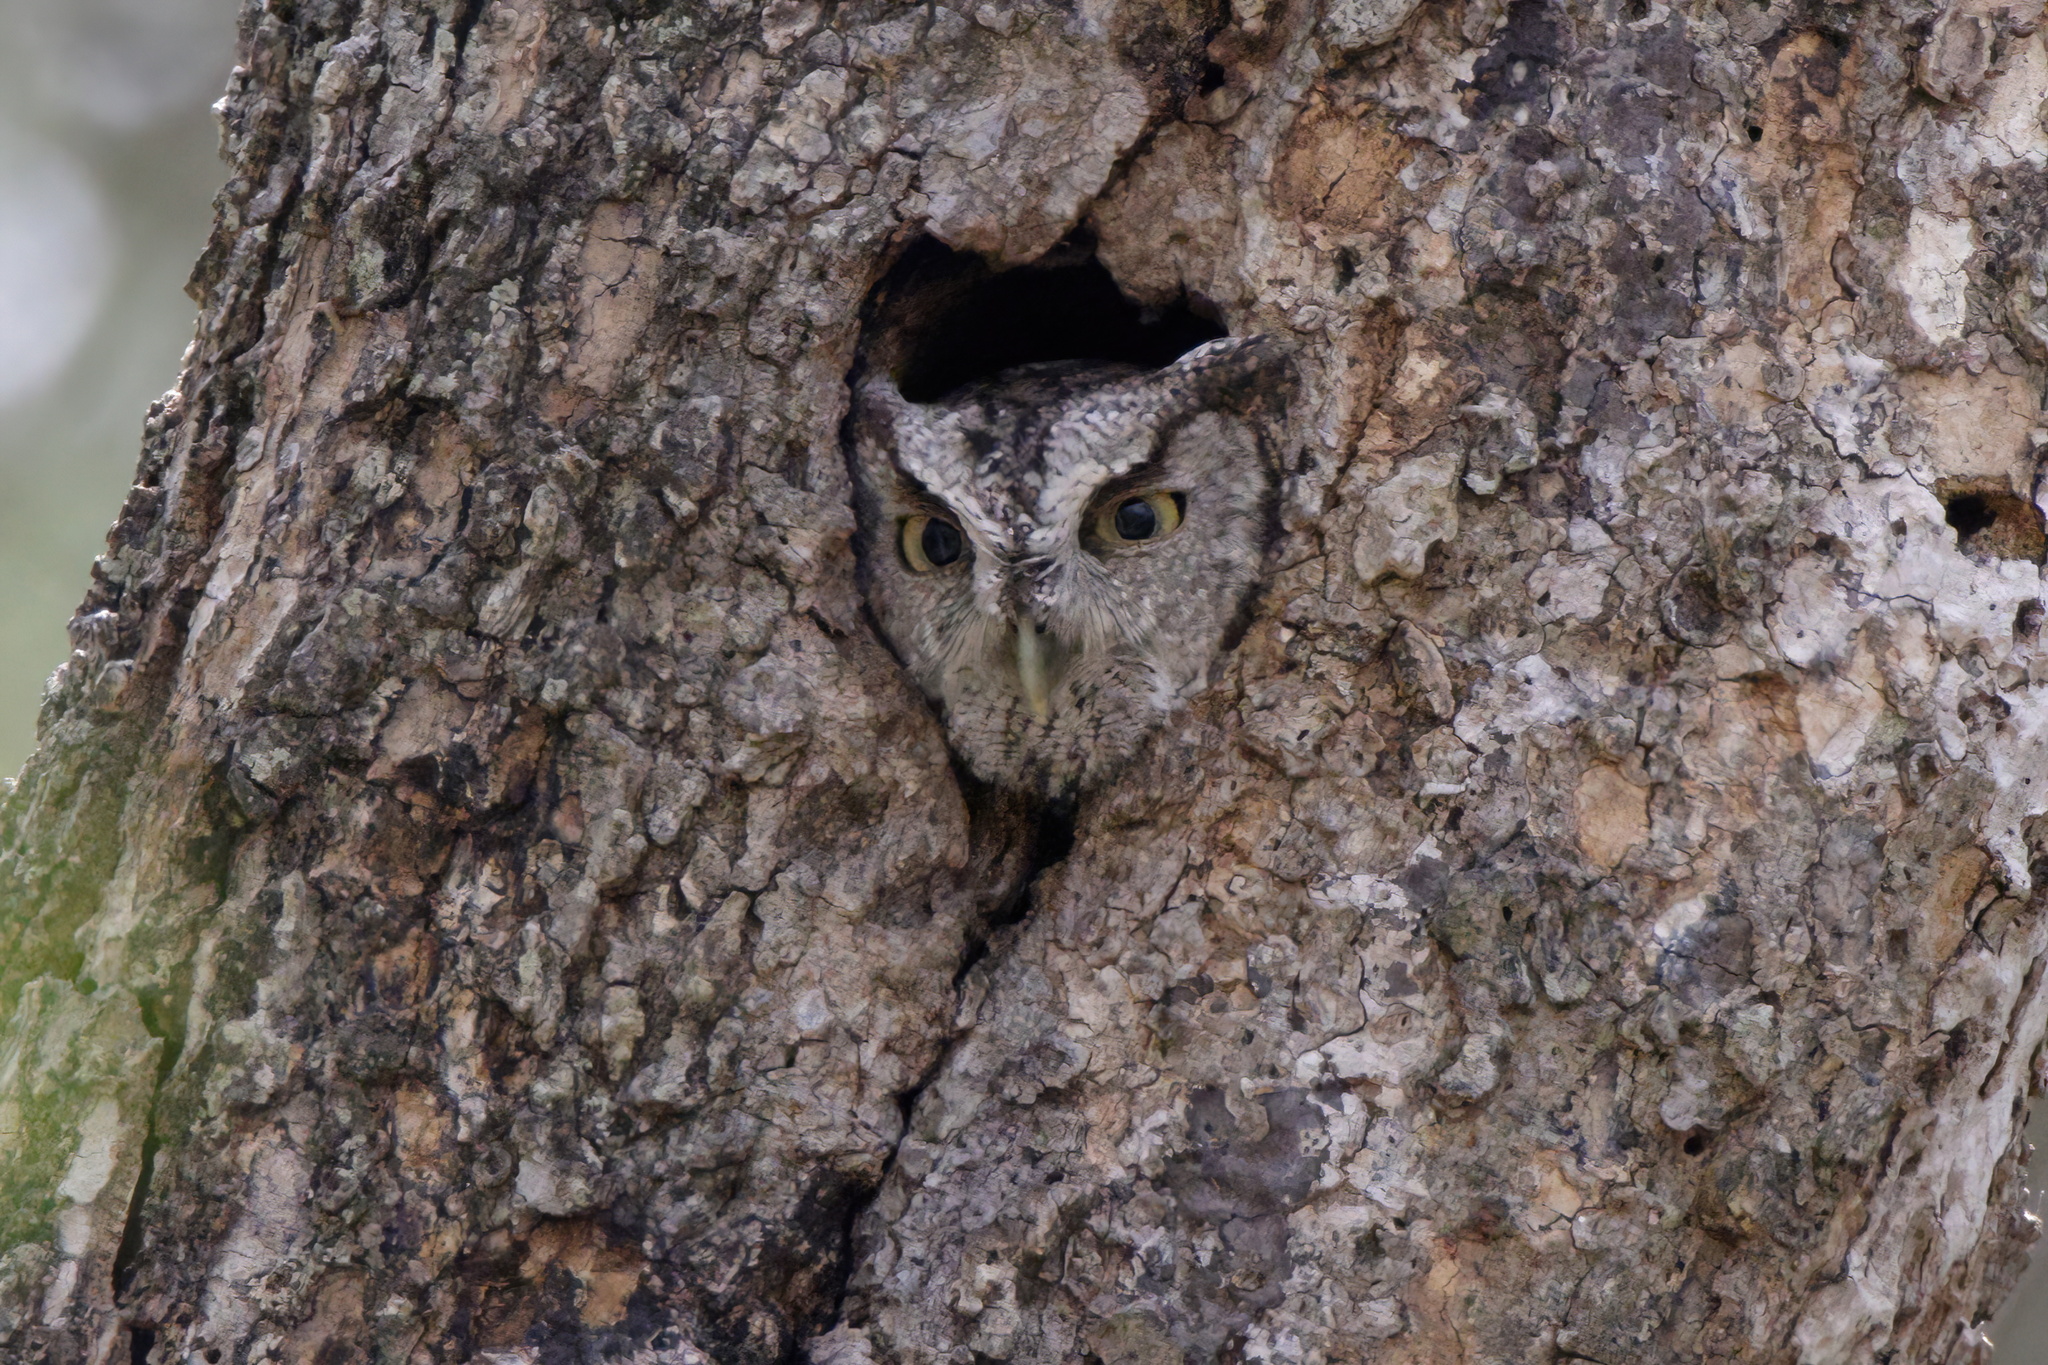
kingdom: Animalia
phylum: Chordata
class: Aves
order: Strigiformes
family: Strigidae
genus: Megascops
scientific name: Megascops asio
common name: Eastern screech-owl
